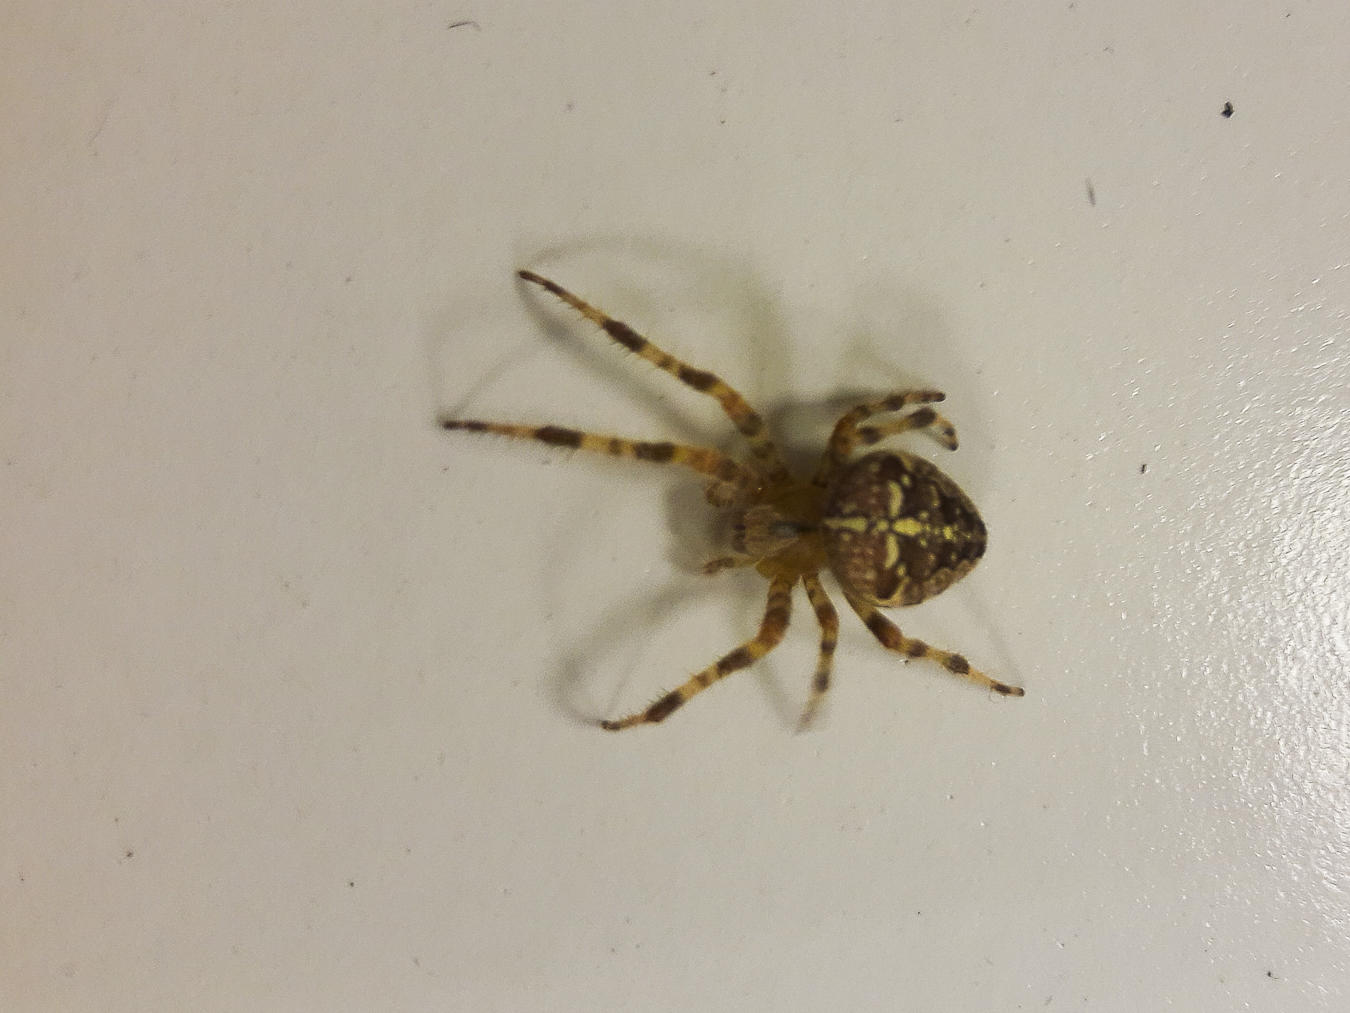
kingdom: Animalia
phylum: Arthropoda
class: Arachnida
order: Araneae
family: Araneidae
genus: Araneus
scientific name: Araneus diadematus
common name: Cross orbweaver
